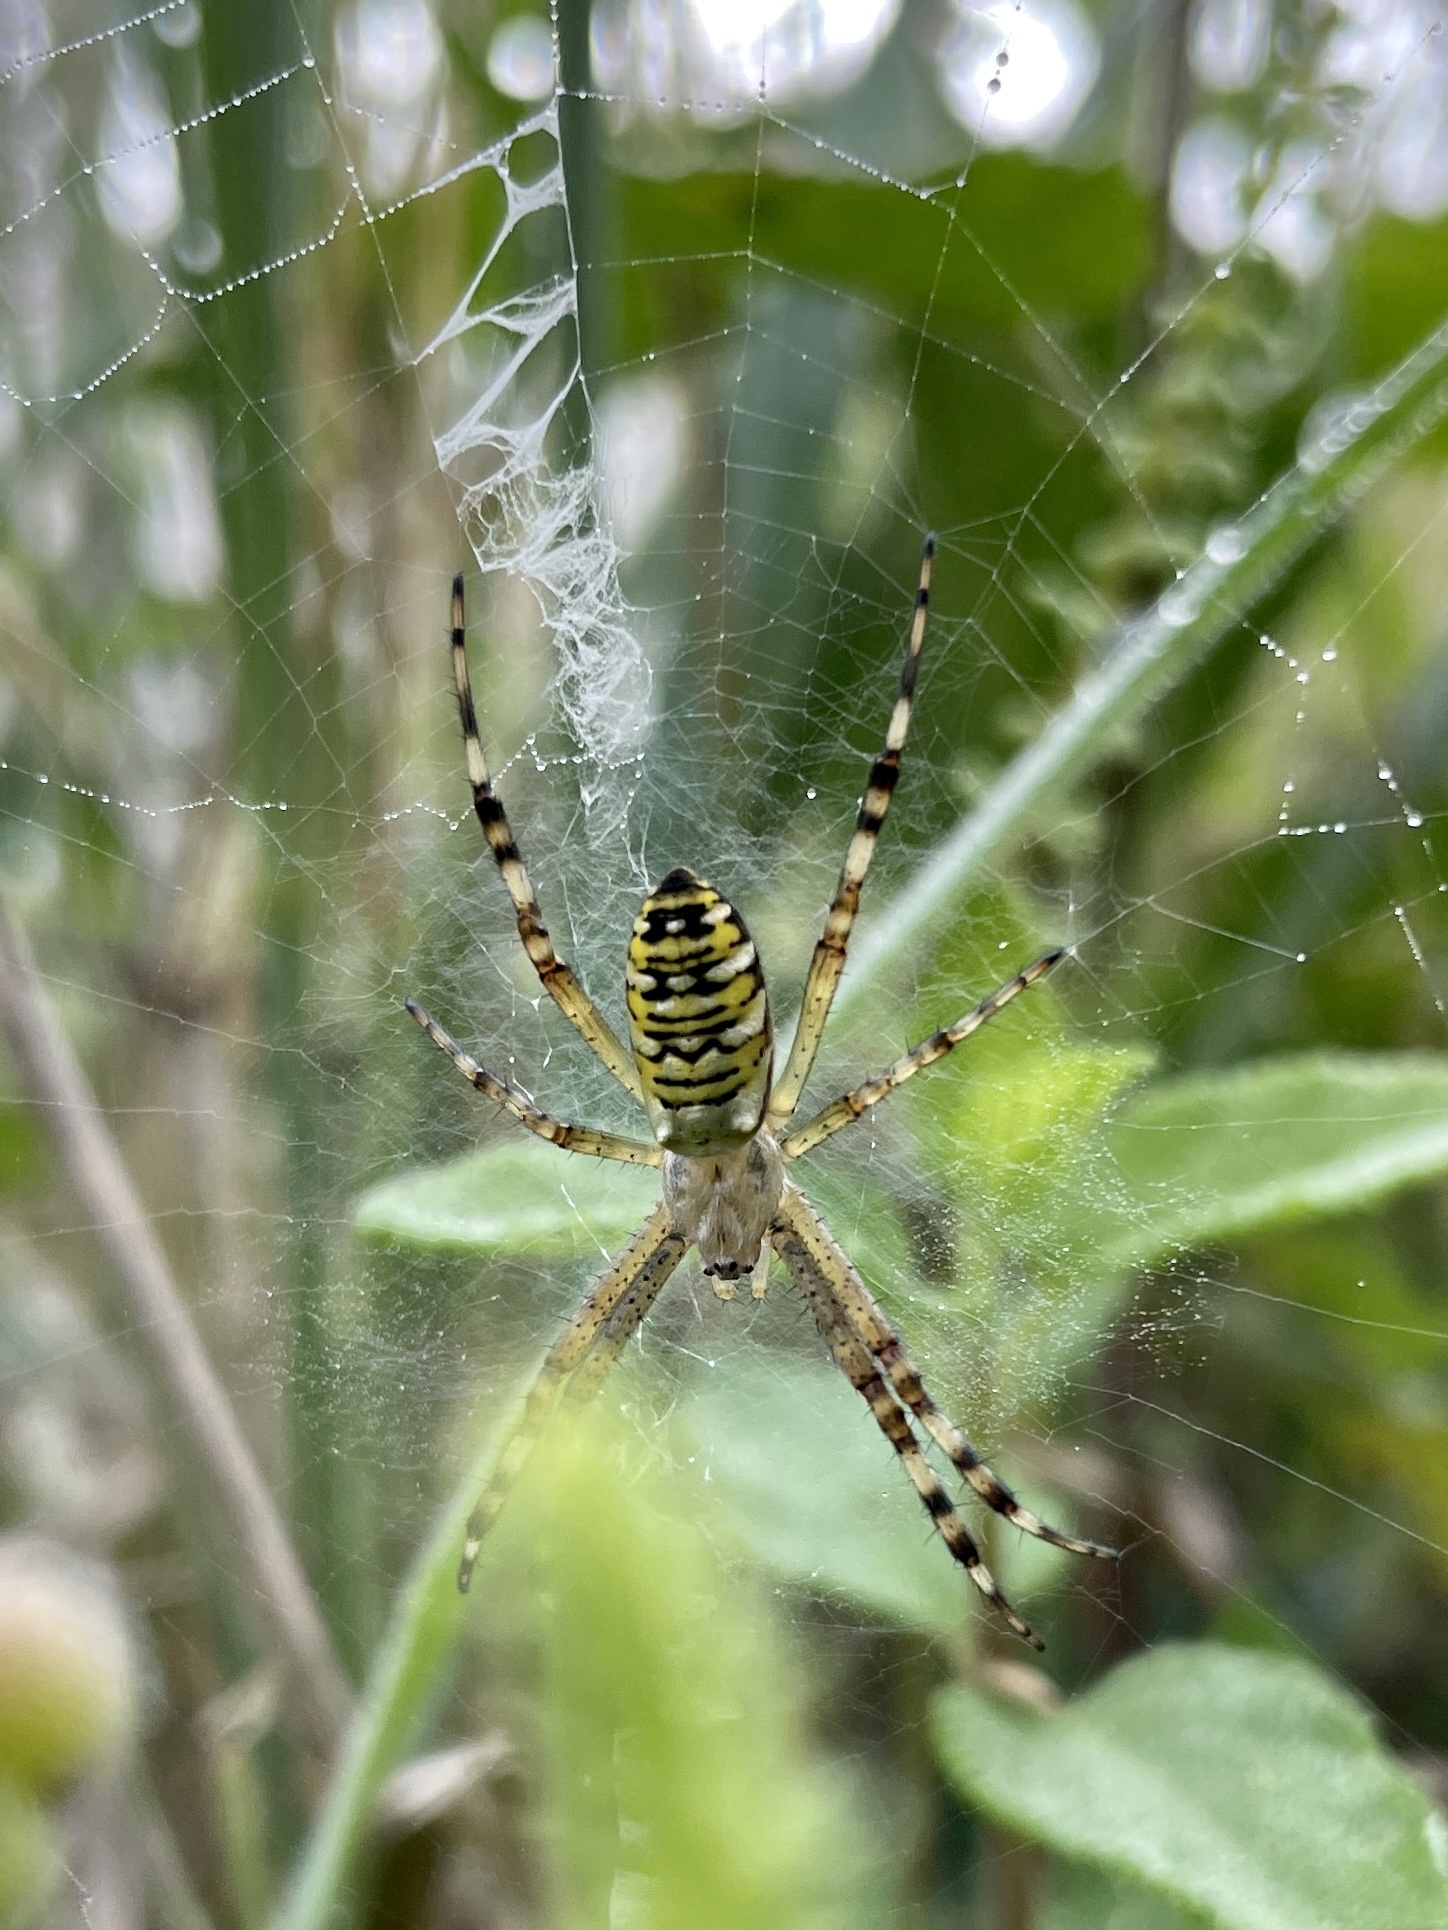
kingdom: Animalia
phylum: Arthropoda
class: Arachnida
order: Araneae
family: Araneidae
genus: Argiope
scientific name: Argiope bruennichi
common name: Wasp spider
